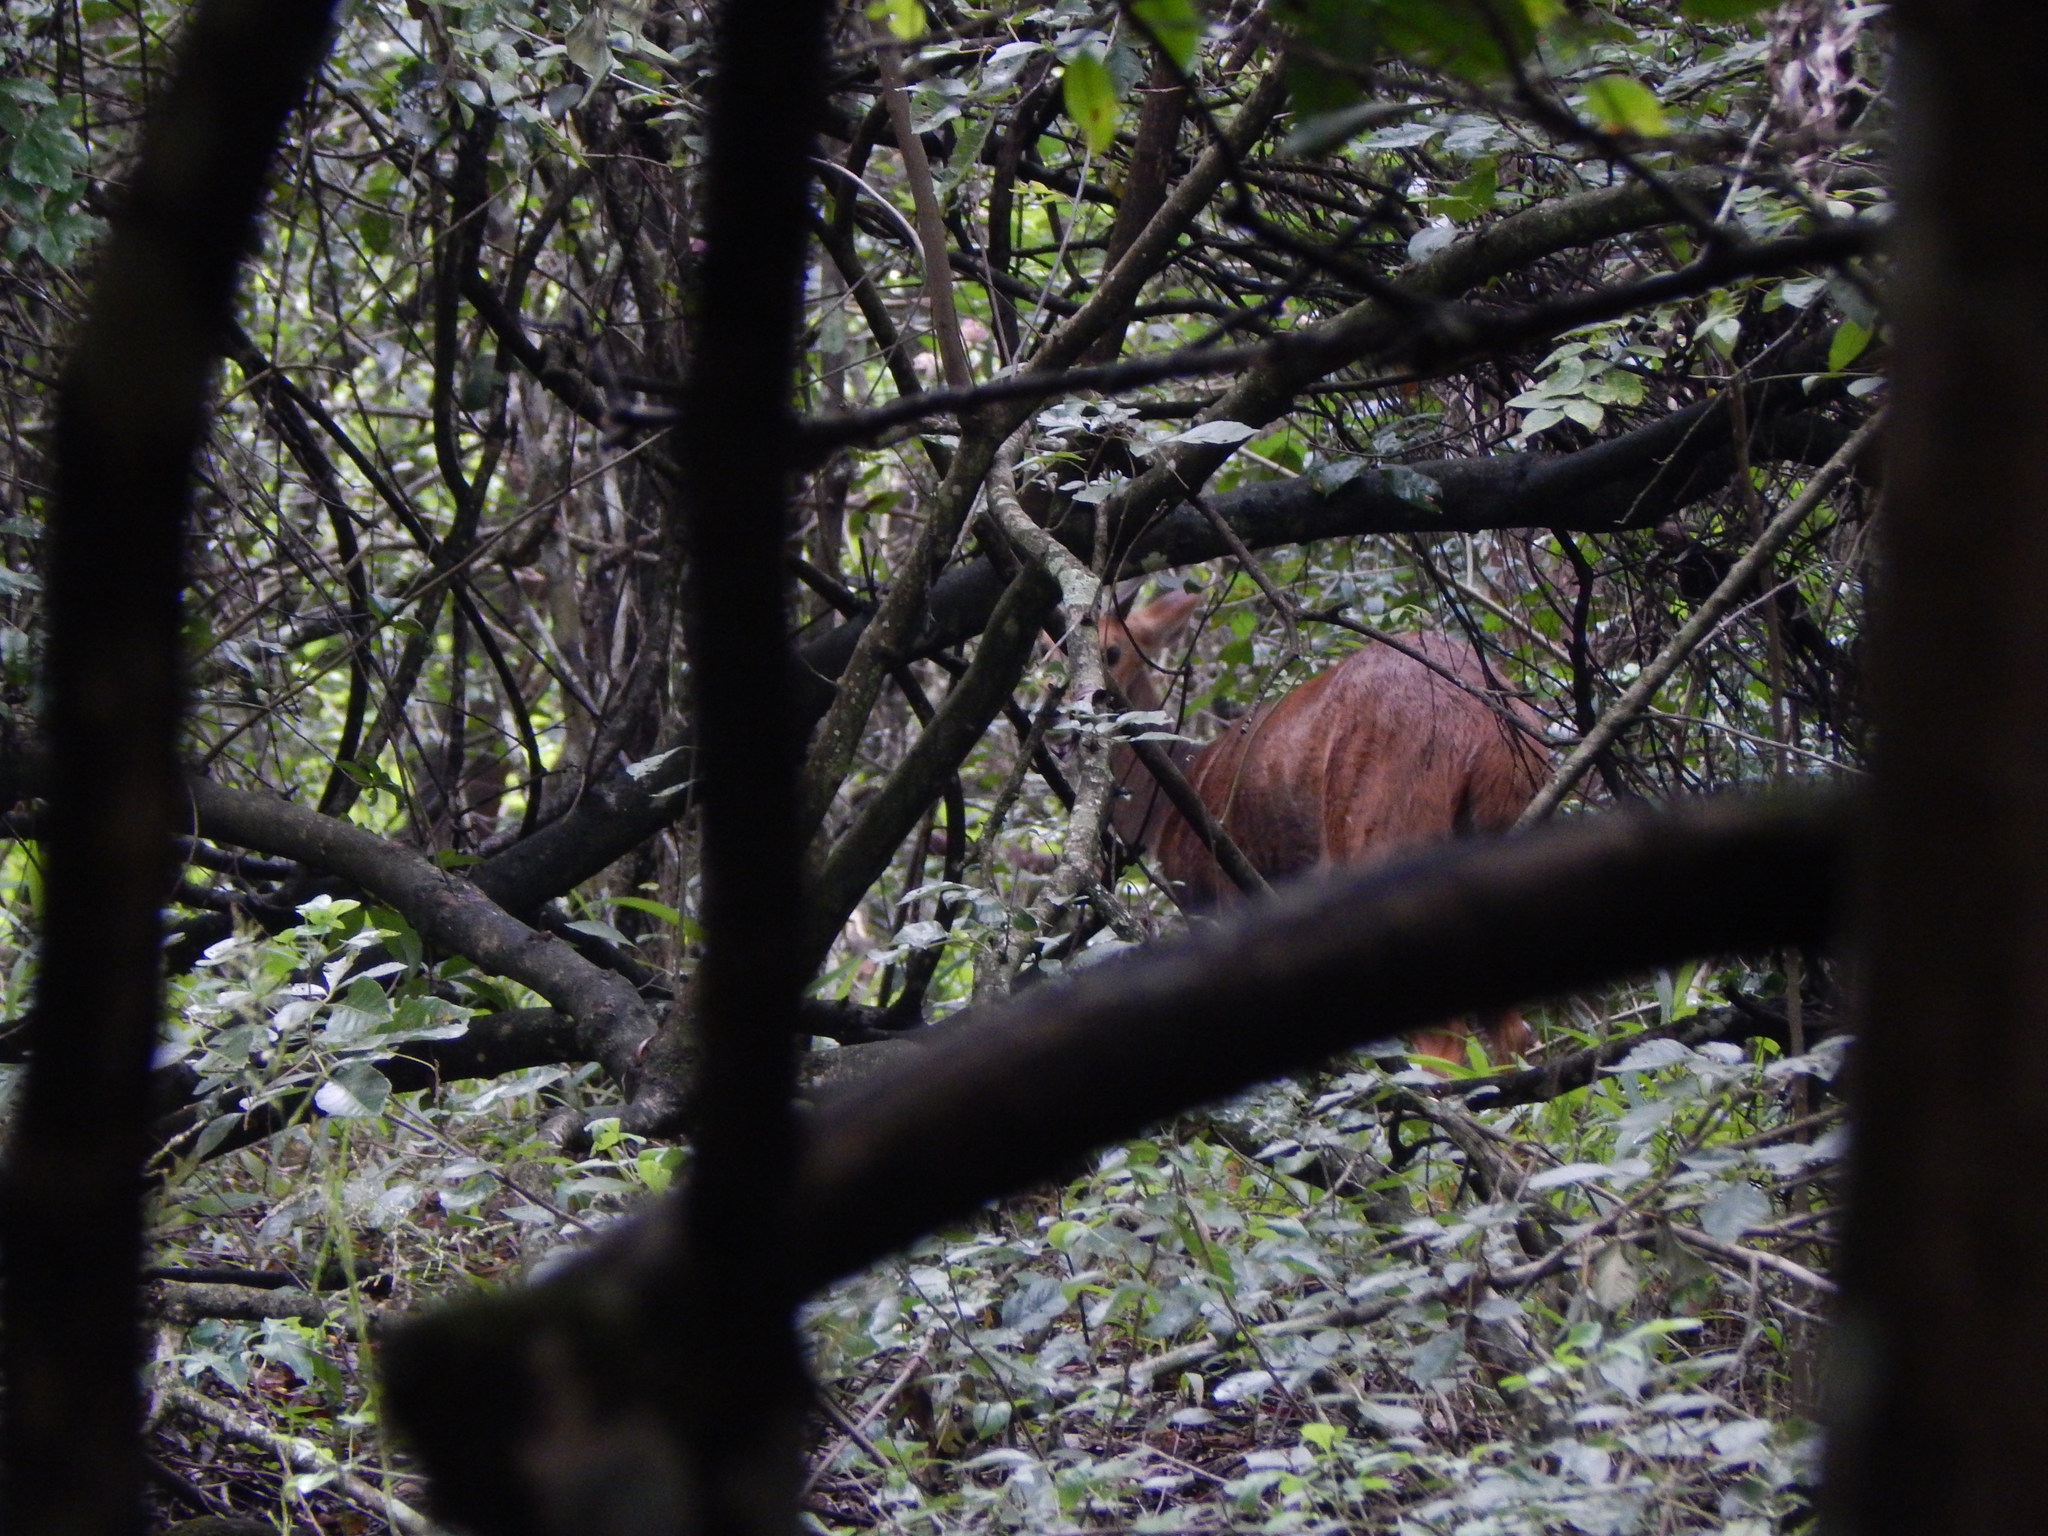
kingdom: Animalia
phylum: Chordata
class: Mammalia
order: Artiodactyla
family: Bovidae
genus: Tragelaphus
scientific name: Tragelaphus scriptus
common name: Bushbuck
